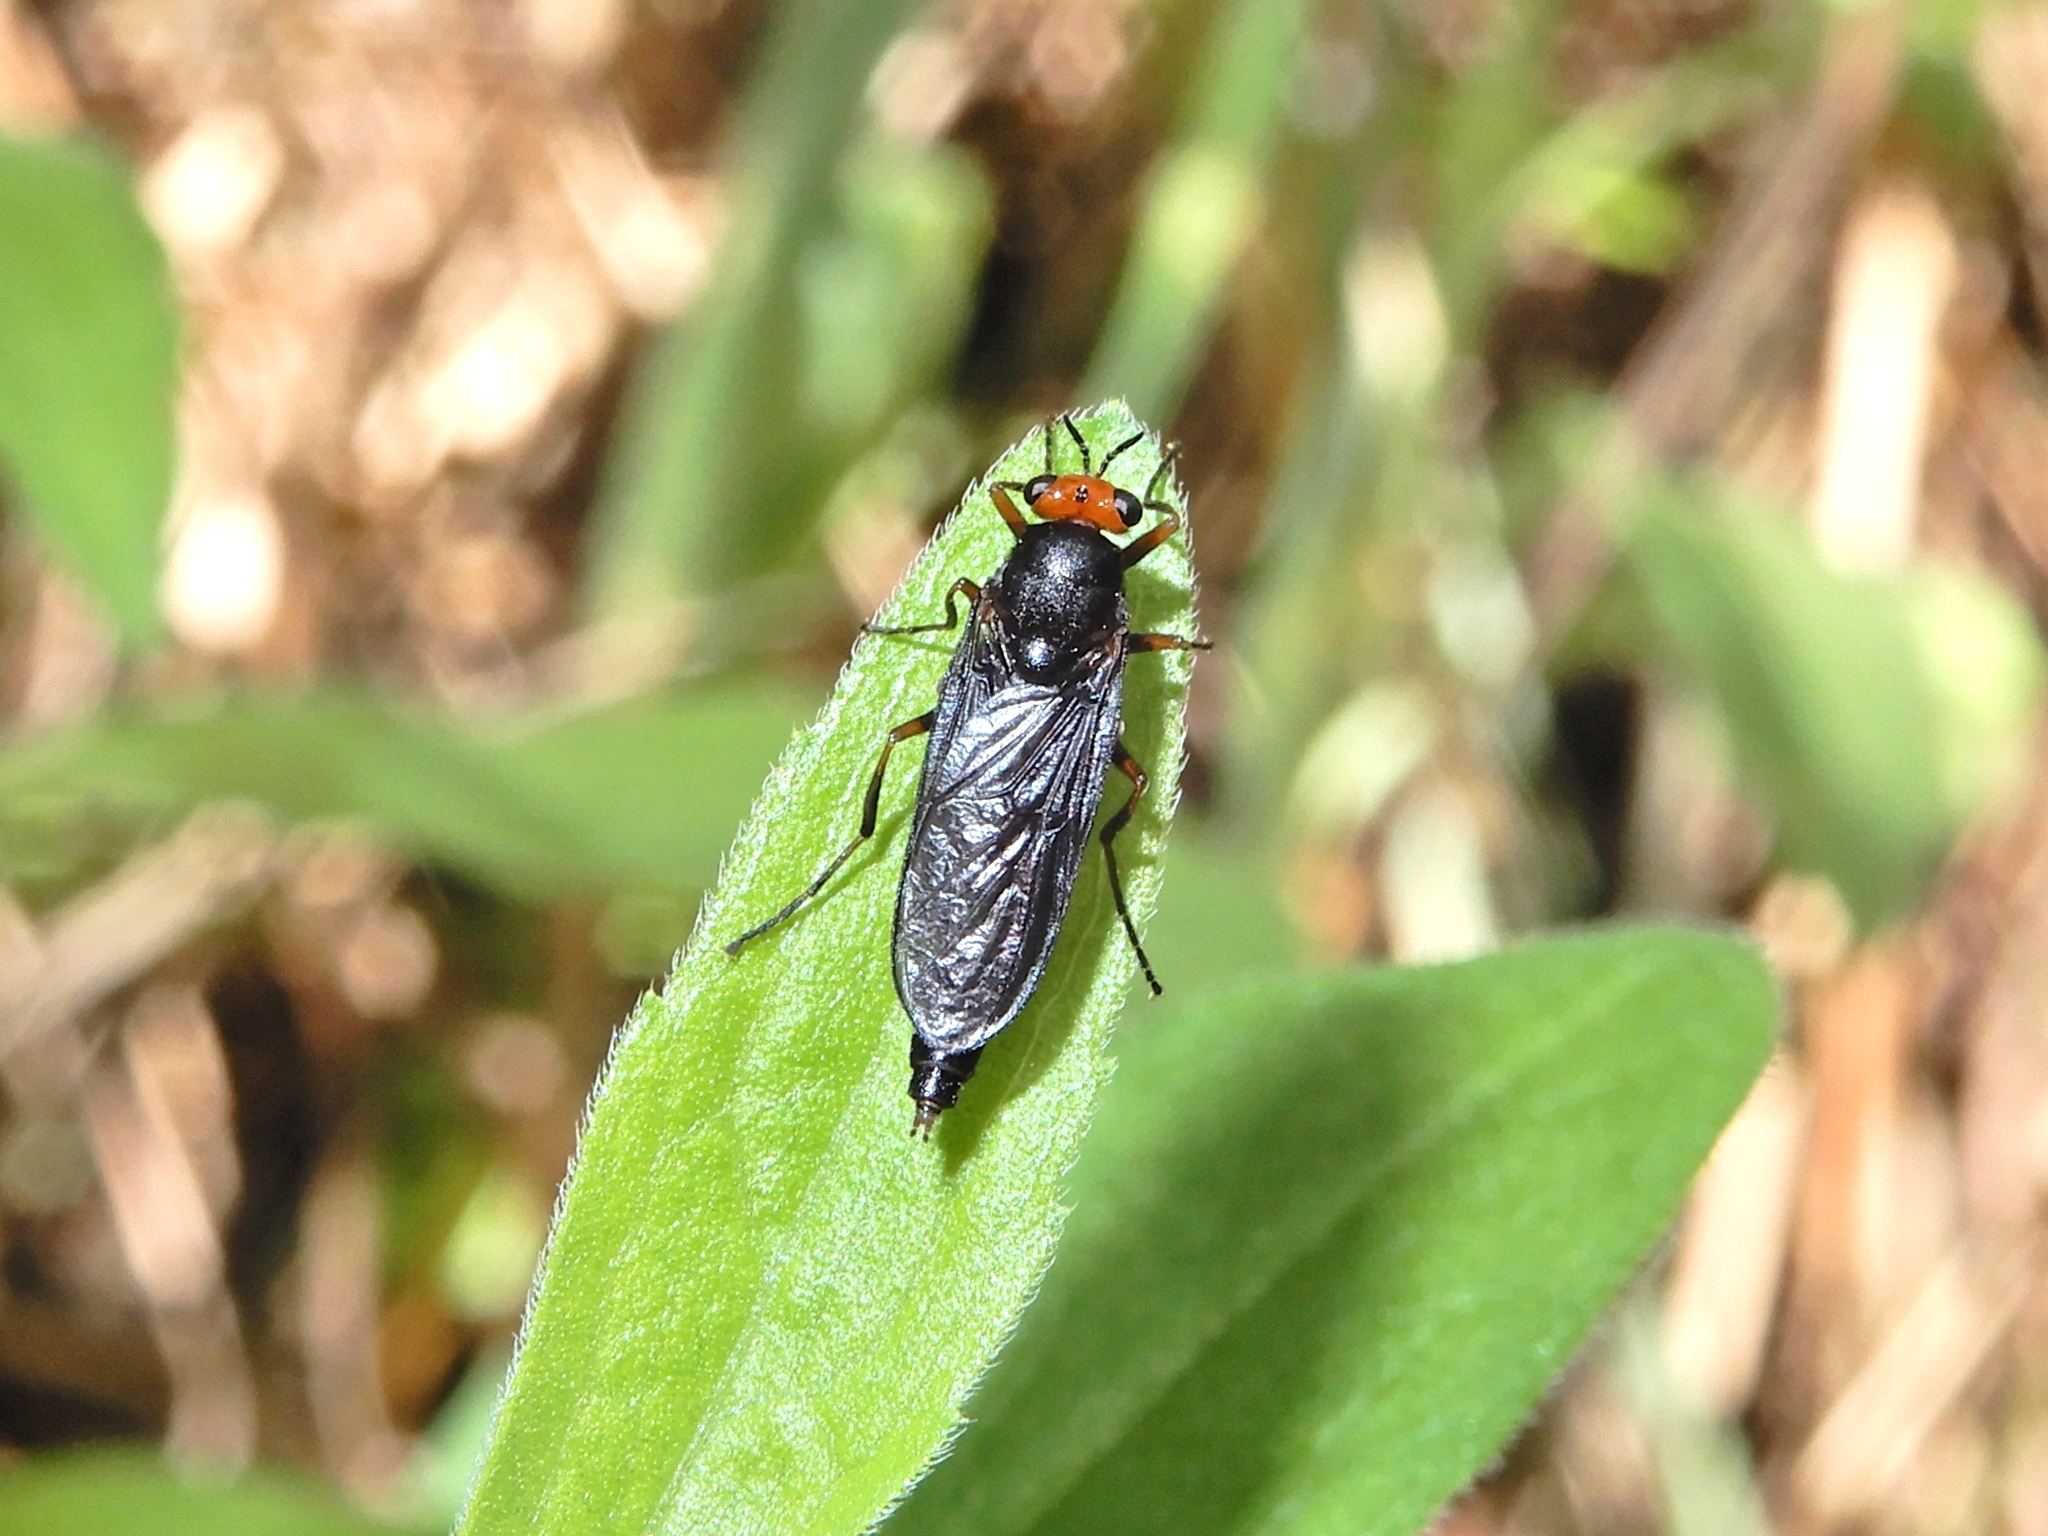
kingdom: Animalia
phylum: Arthropoda
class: Insecta
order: Diptera
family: Stratiomyidae
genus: Inopus
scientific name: Inopus rubriceps
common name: Soldier fly
